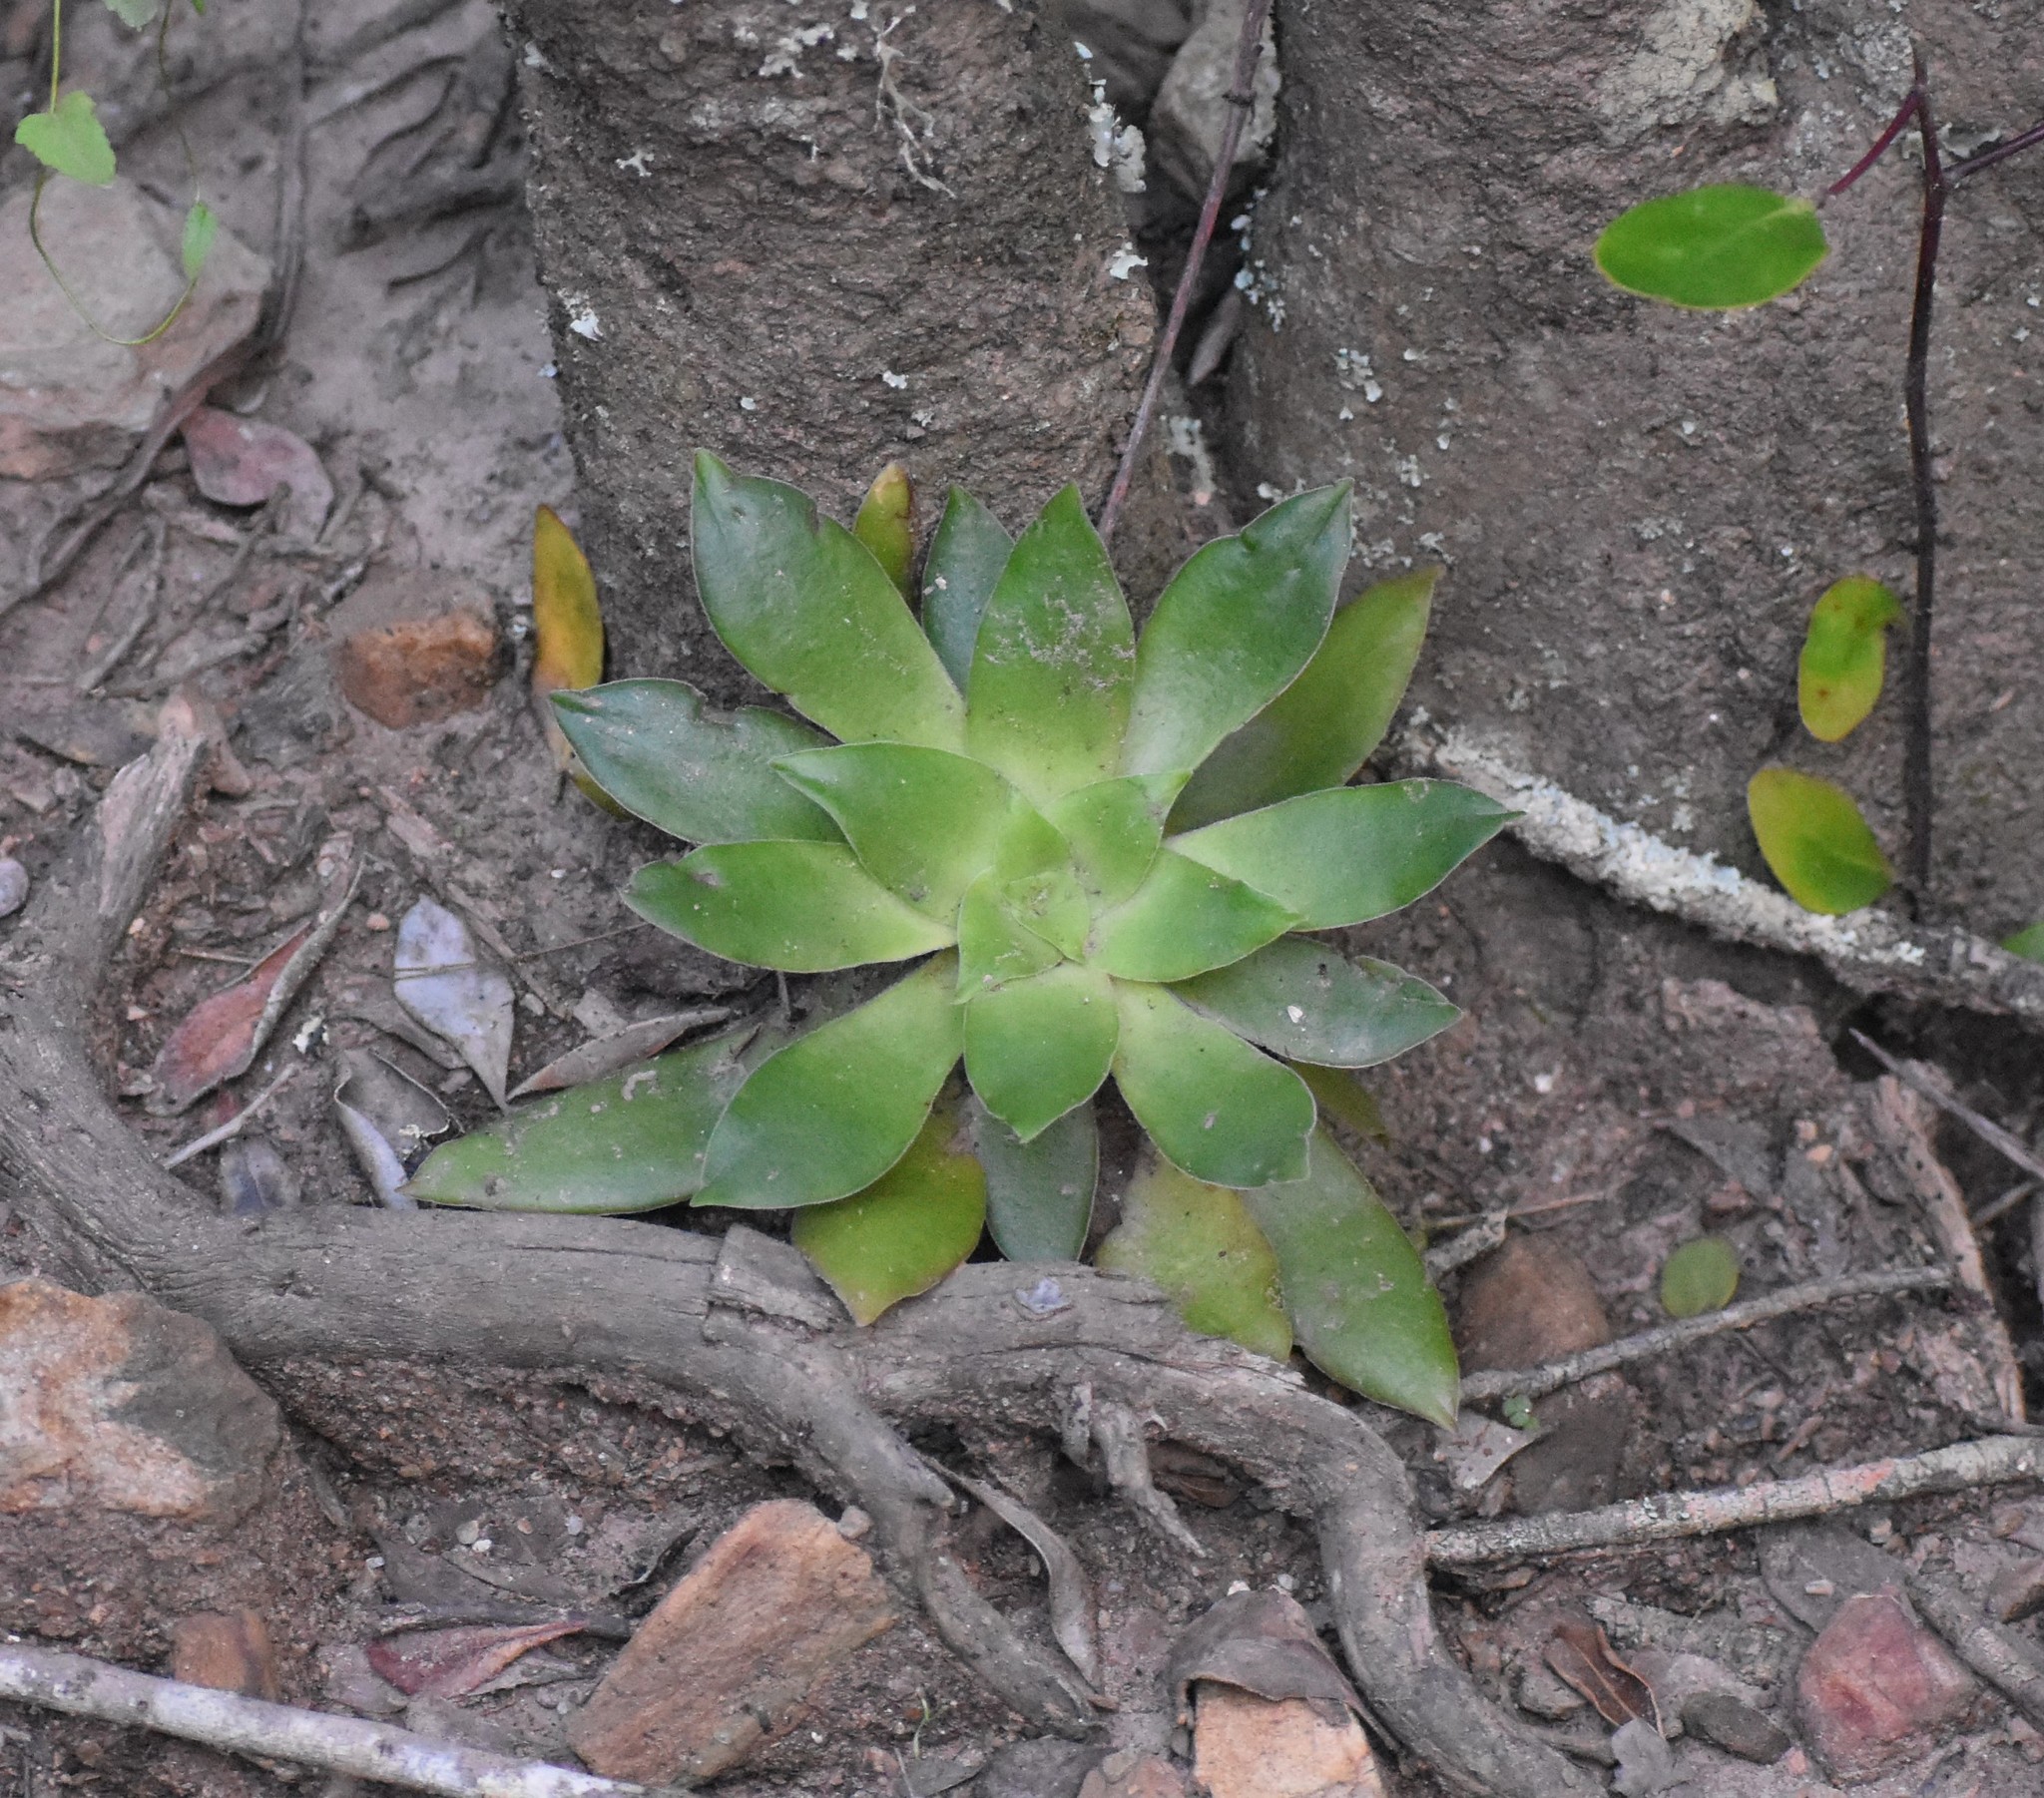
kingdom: Plantae
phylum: Tracheophyta
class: Magnoliopsida
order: Saxifragales
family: Crassulaceae
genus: Crassula
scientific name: Crassula orbicularis
